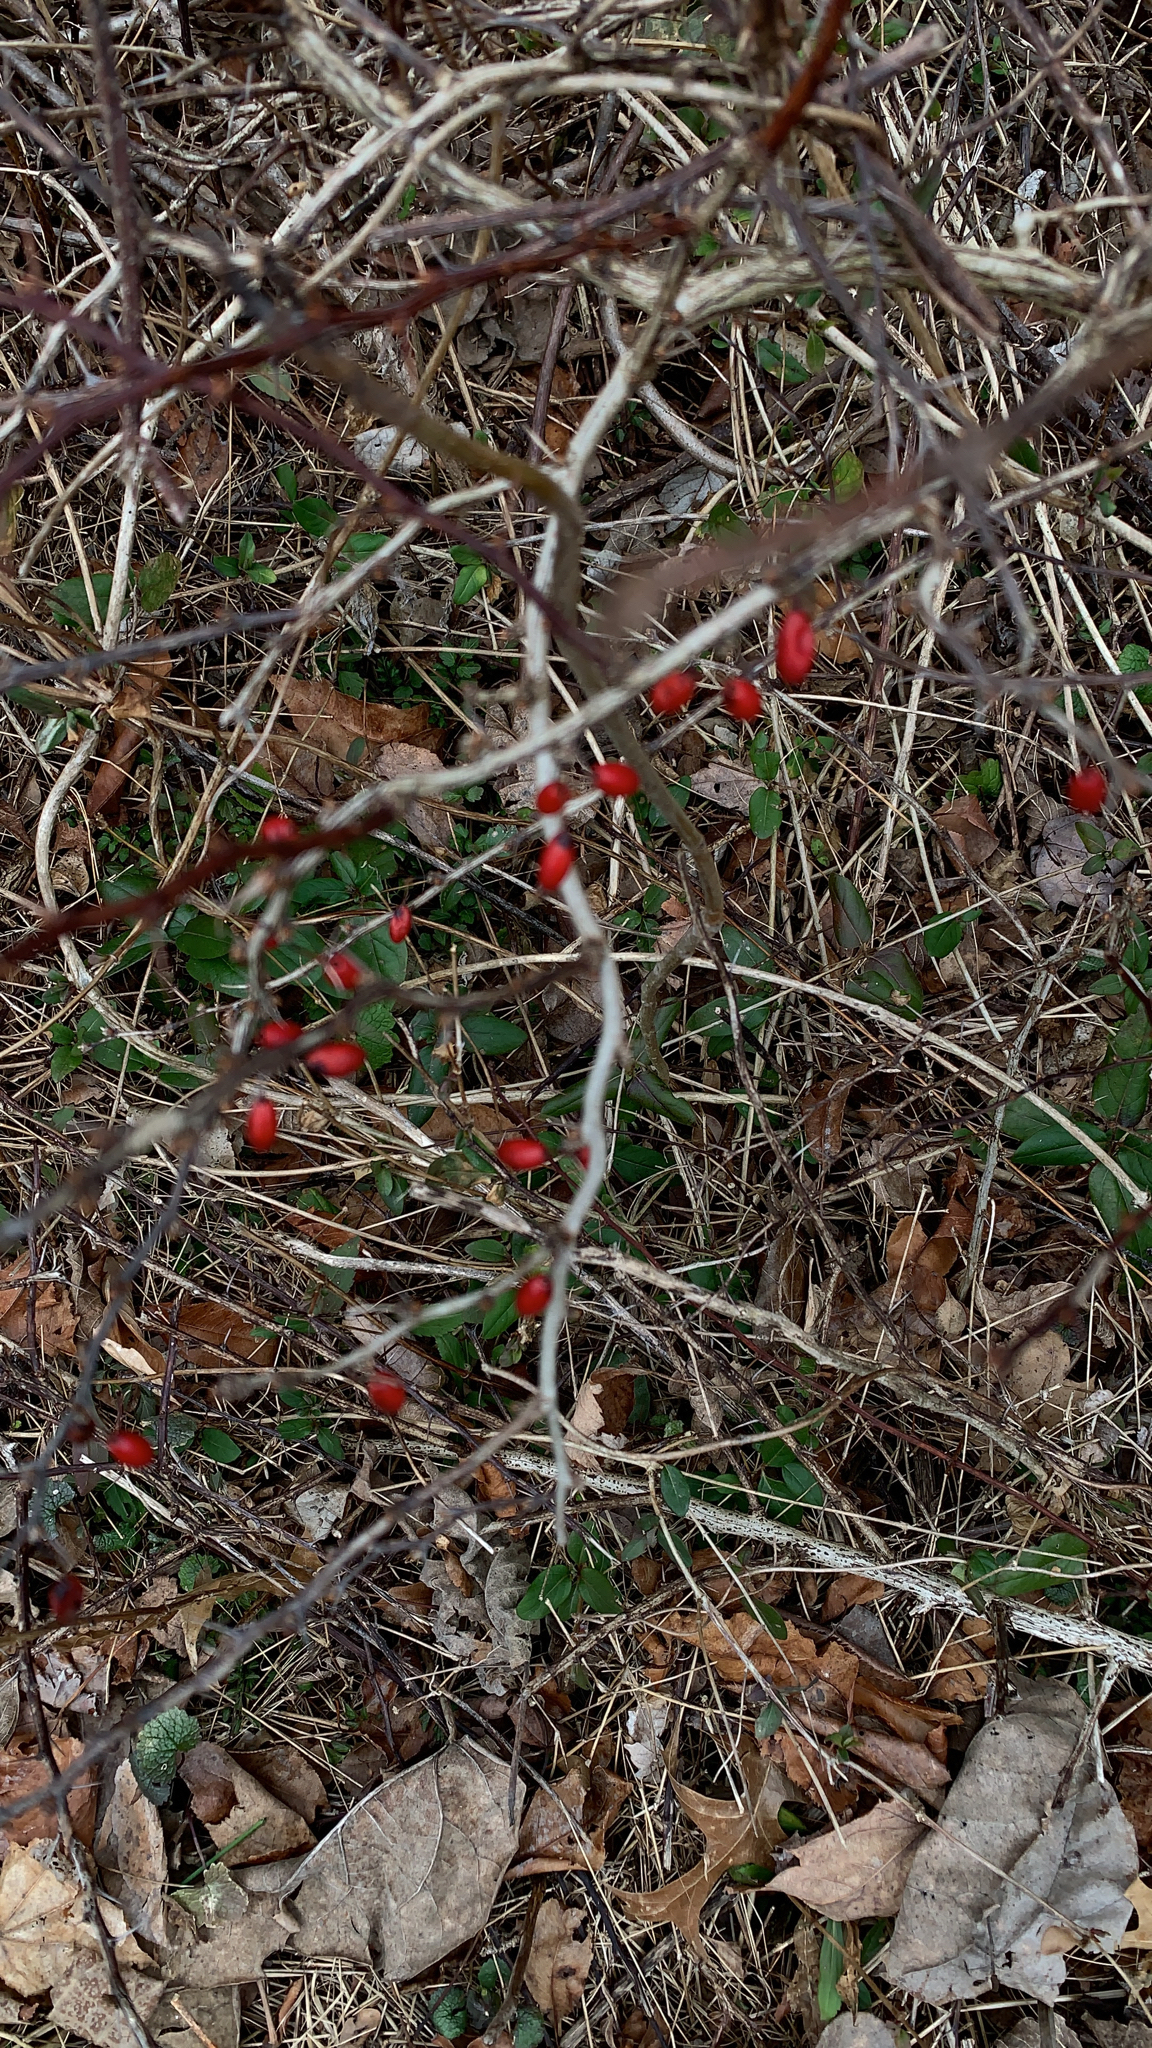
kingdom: Plantae
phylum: Tracheophyta
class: Magnoliopsida
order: Ranunculales
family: Berberidaceae
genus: Berberis
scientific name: Berberis thunbergii
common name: Japanese barberry
